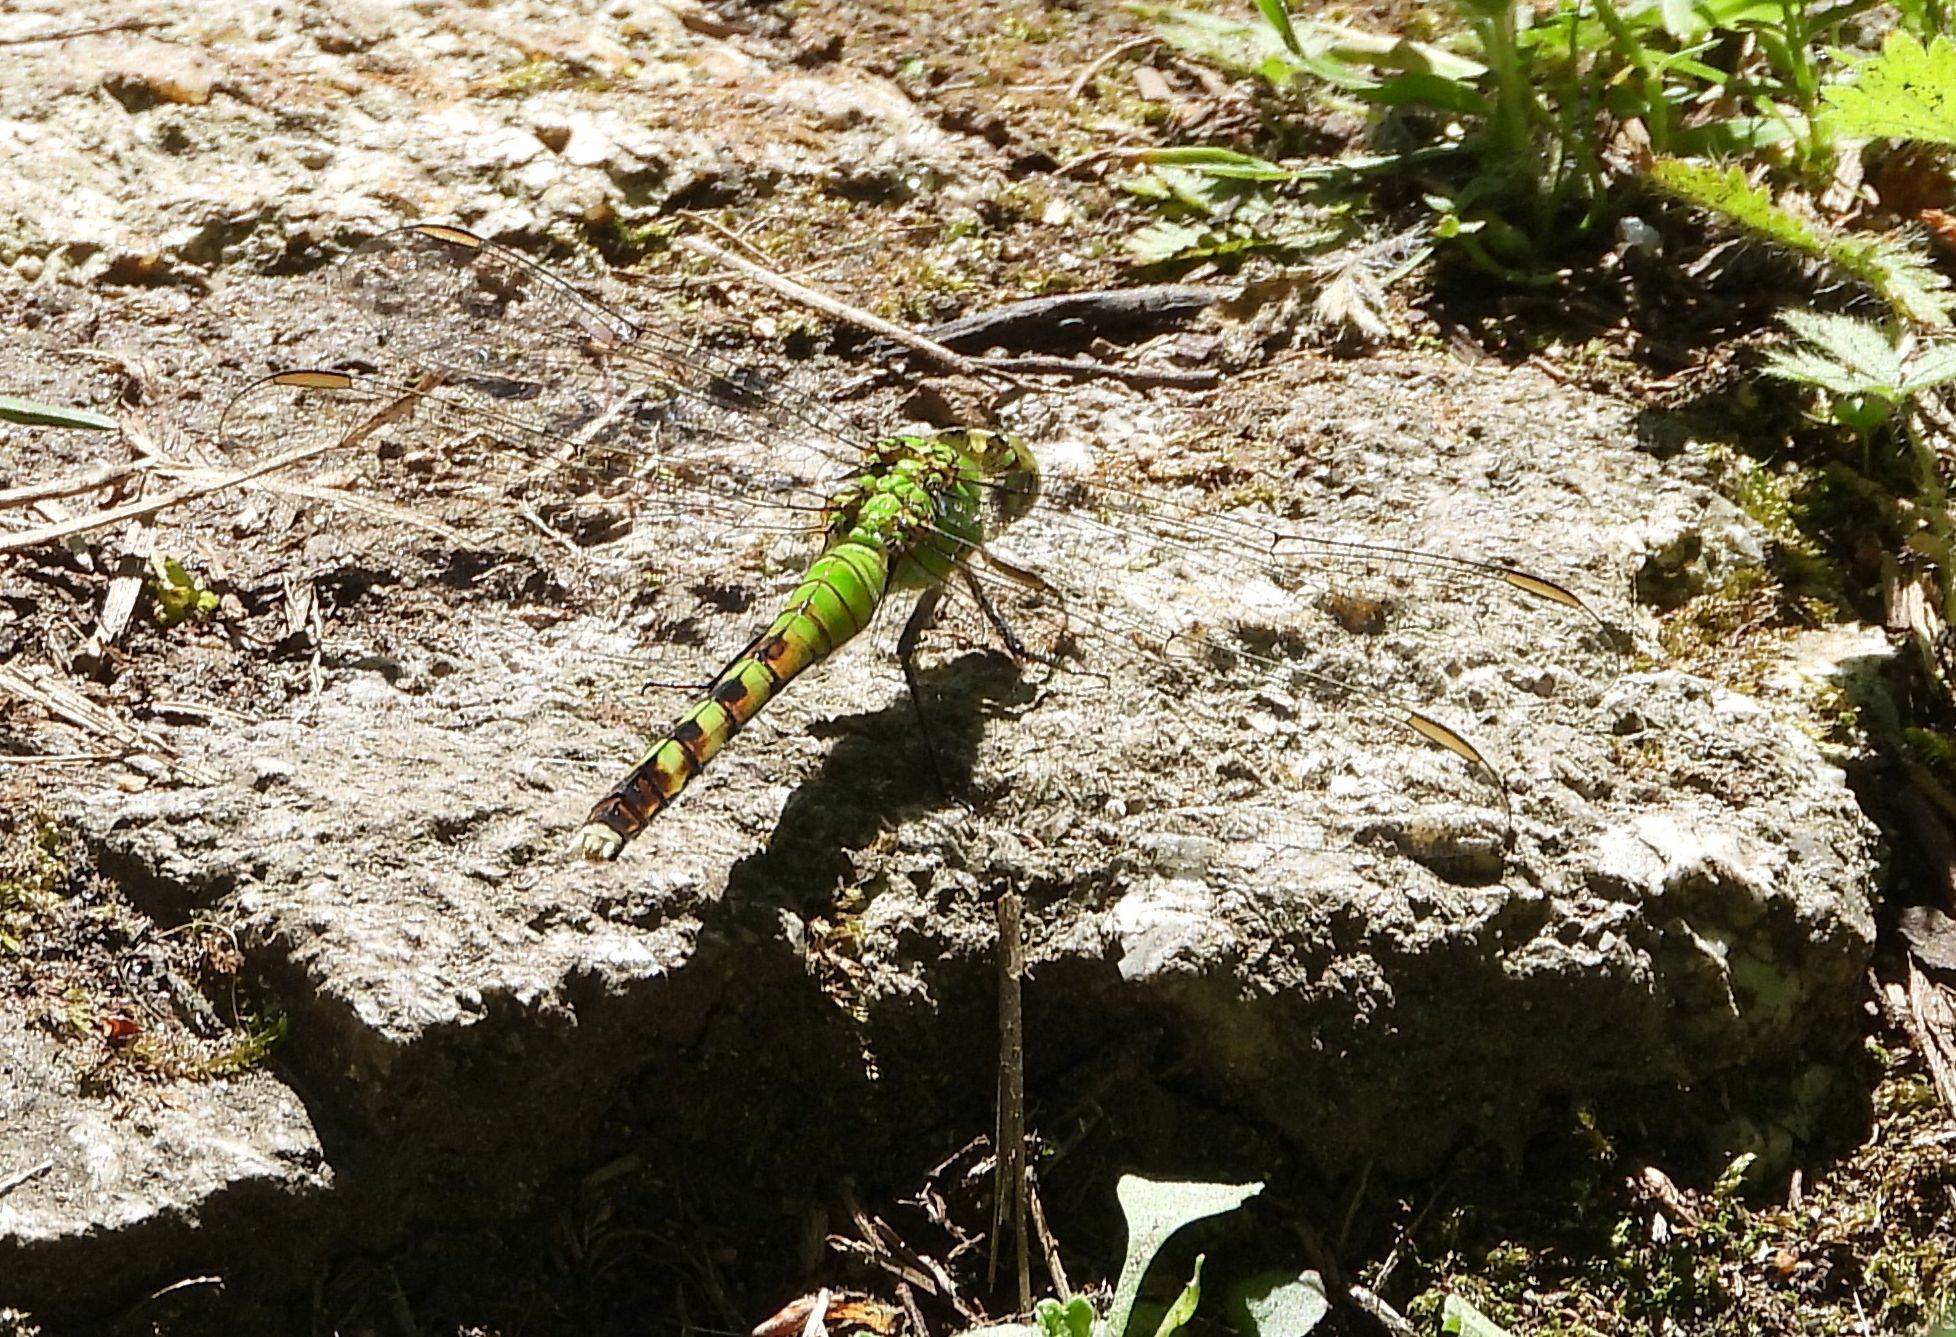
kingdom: Animalia
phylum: Arthropoda
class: Insecta
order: Odonata
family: Libellulidae
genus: Erythemis
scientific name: Erythemis simplicicollis
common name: Eastern pondhawk
